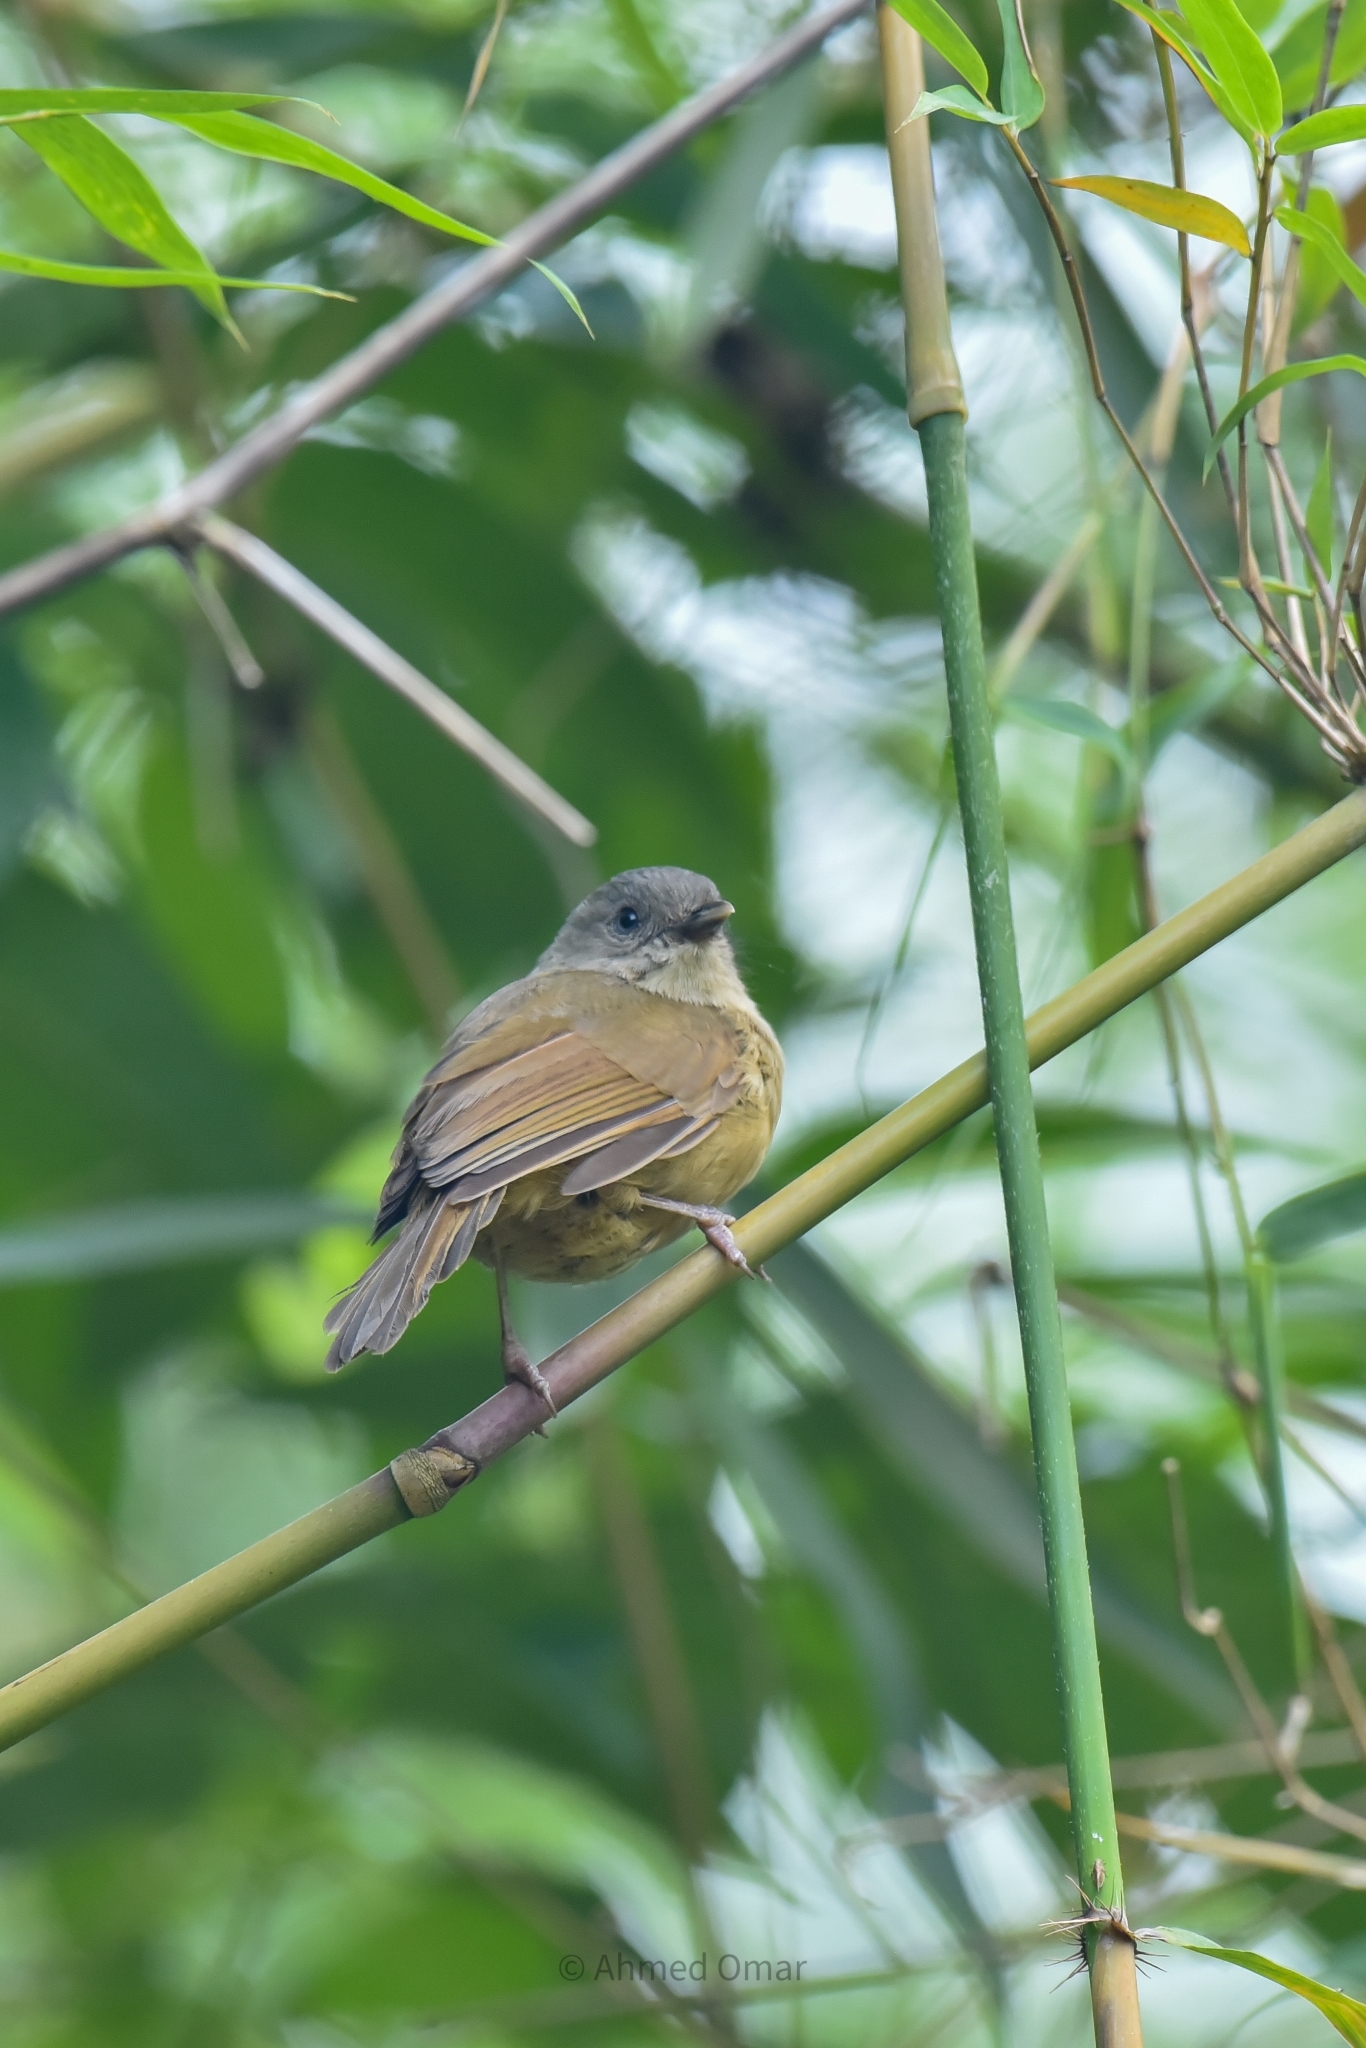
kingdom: Animalia
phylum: Chordata
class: Aves
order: Passeriformes
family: Pellorneidae
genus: Alcippe
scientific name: Alcippe poioicephala
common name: Brown-cheeked fulvetta
